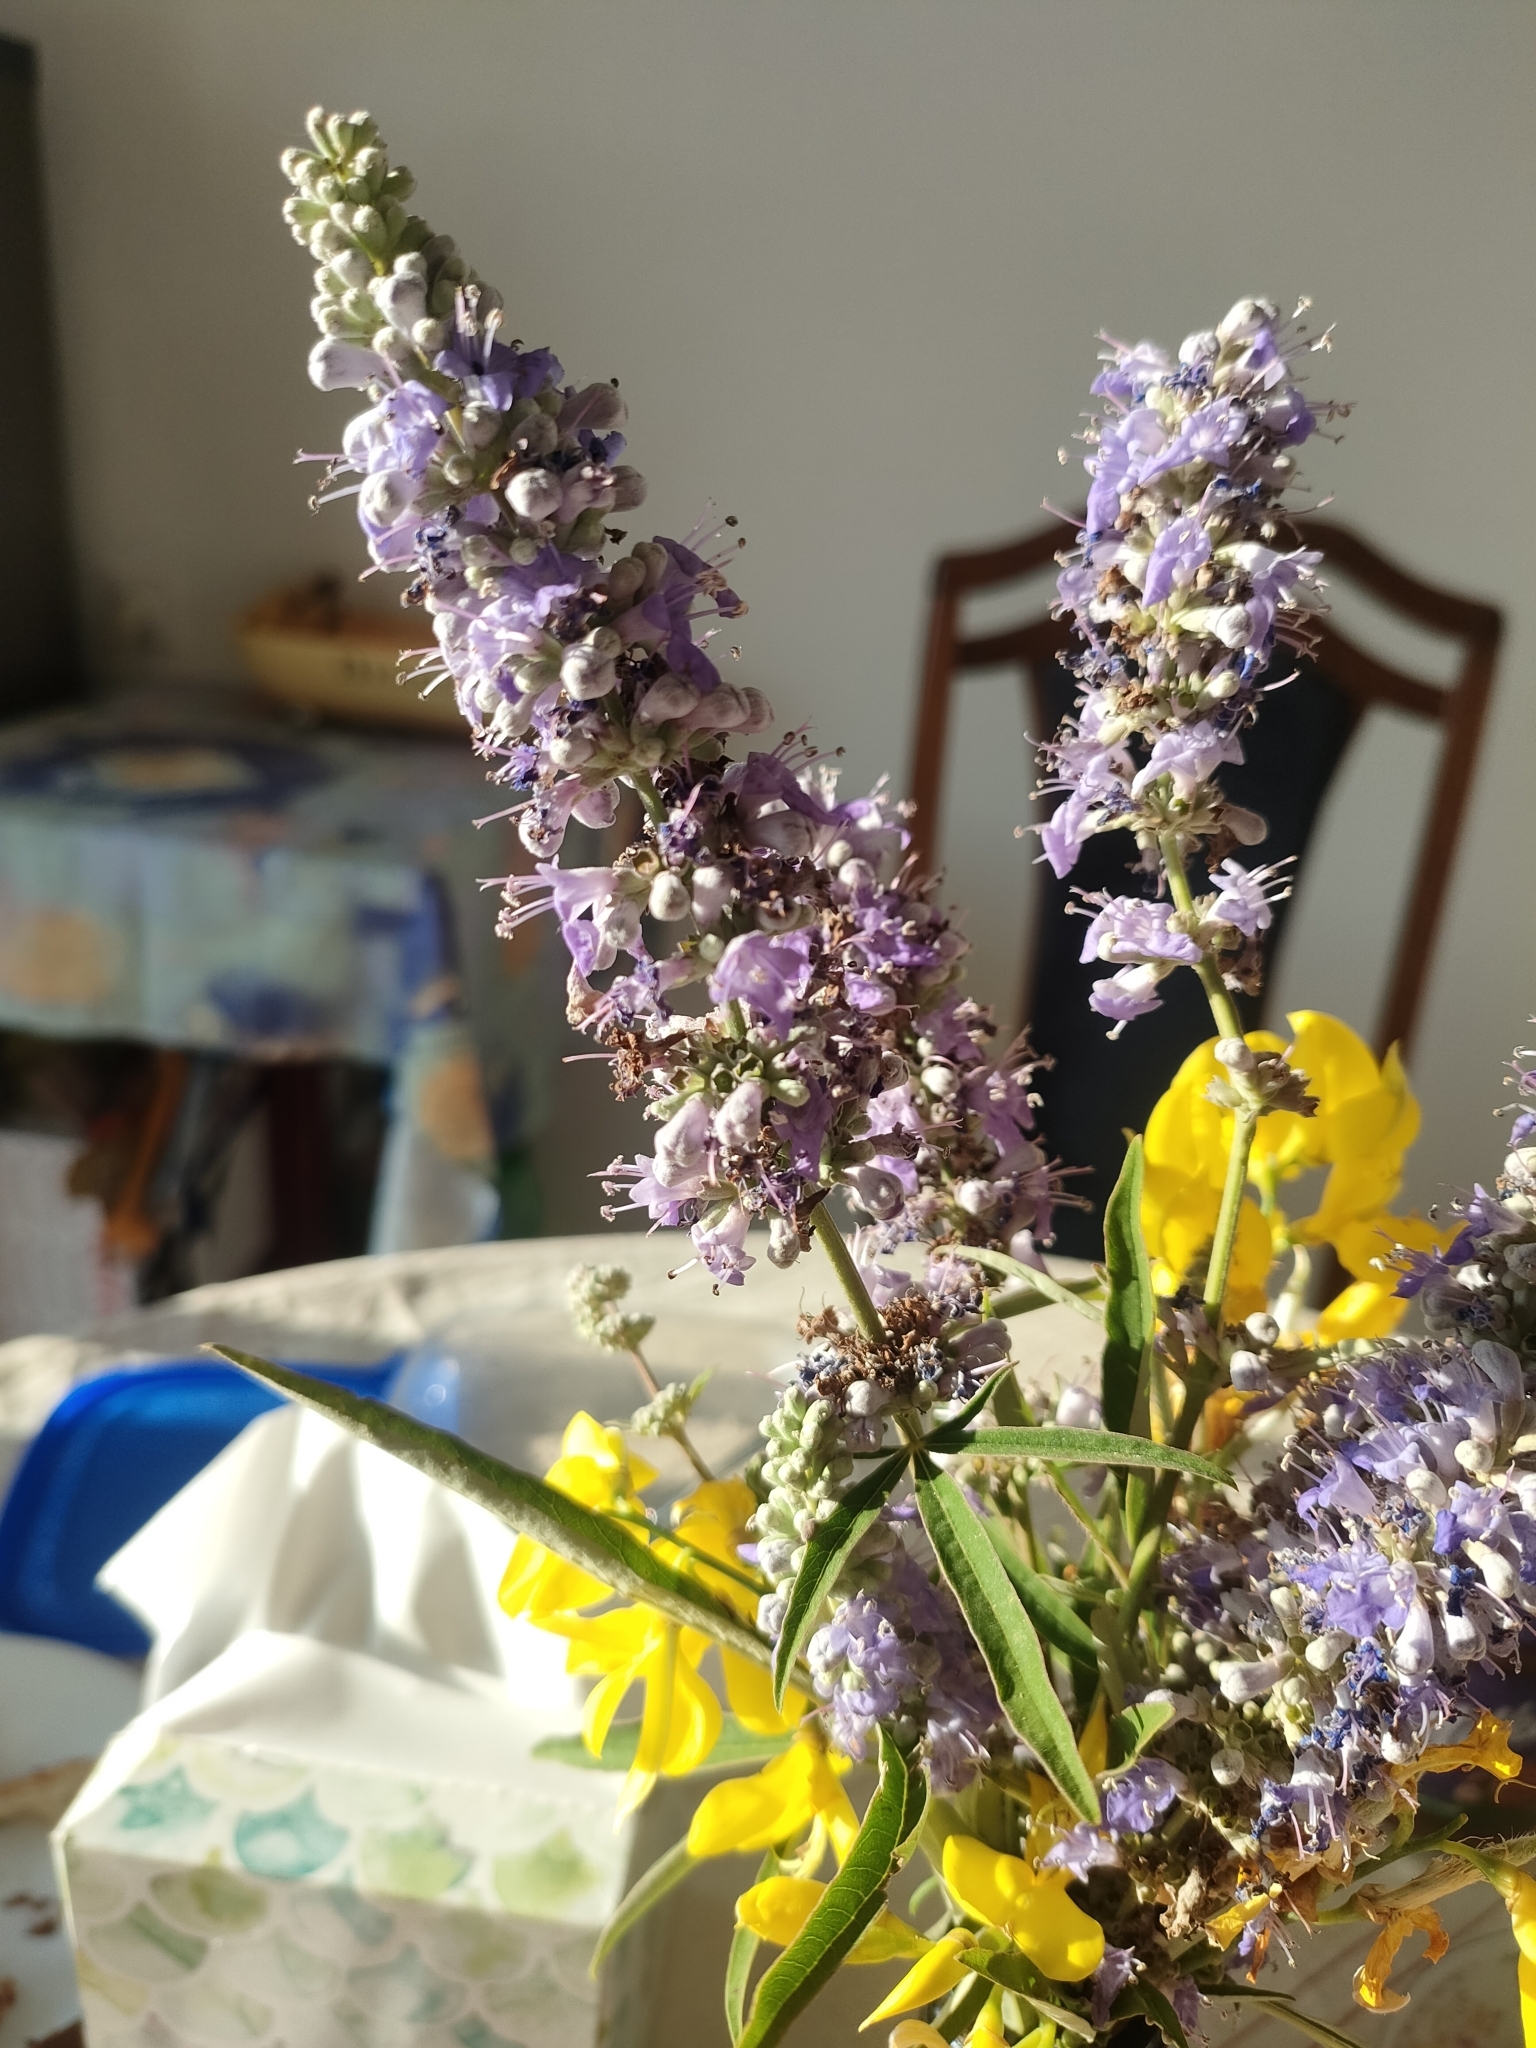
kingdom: Plantae
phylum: Tracheophyta
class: Magnoliopsida
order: Lamiales
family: Lamiaceae
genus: Vitex
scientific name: Vitex agnus-castus
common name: Chasteberry
